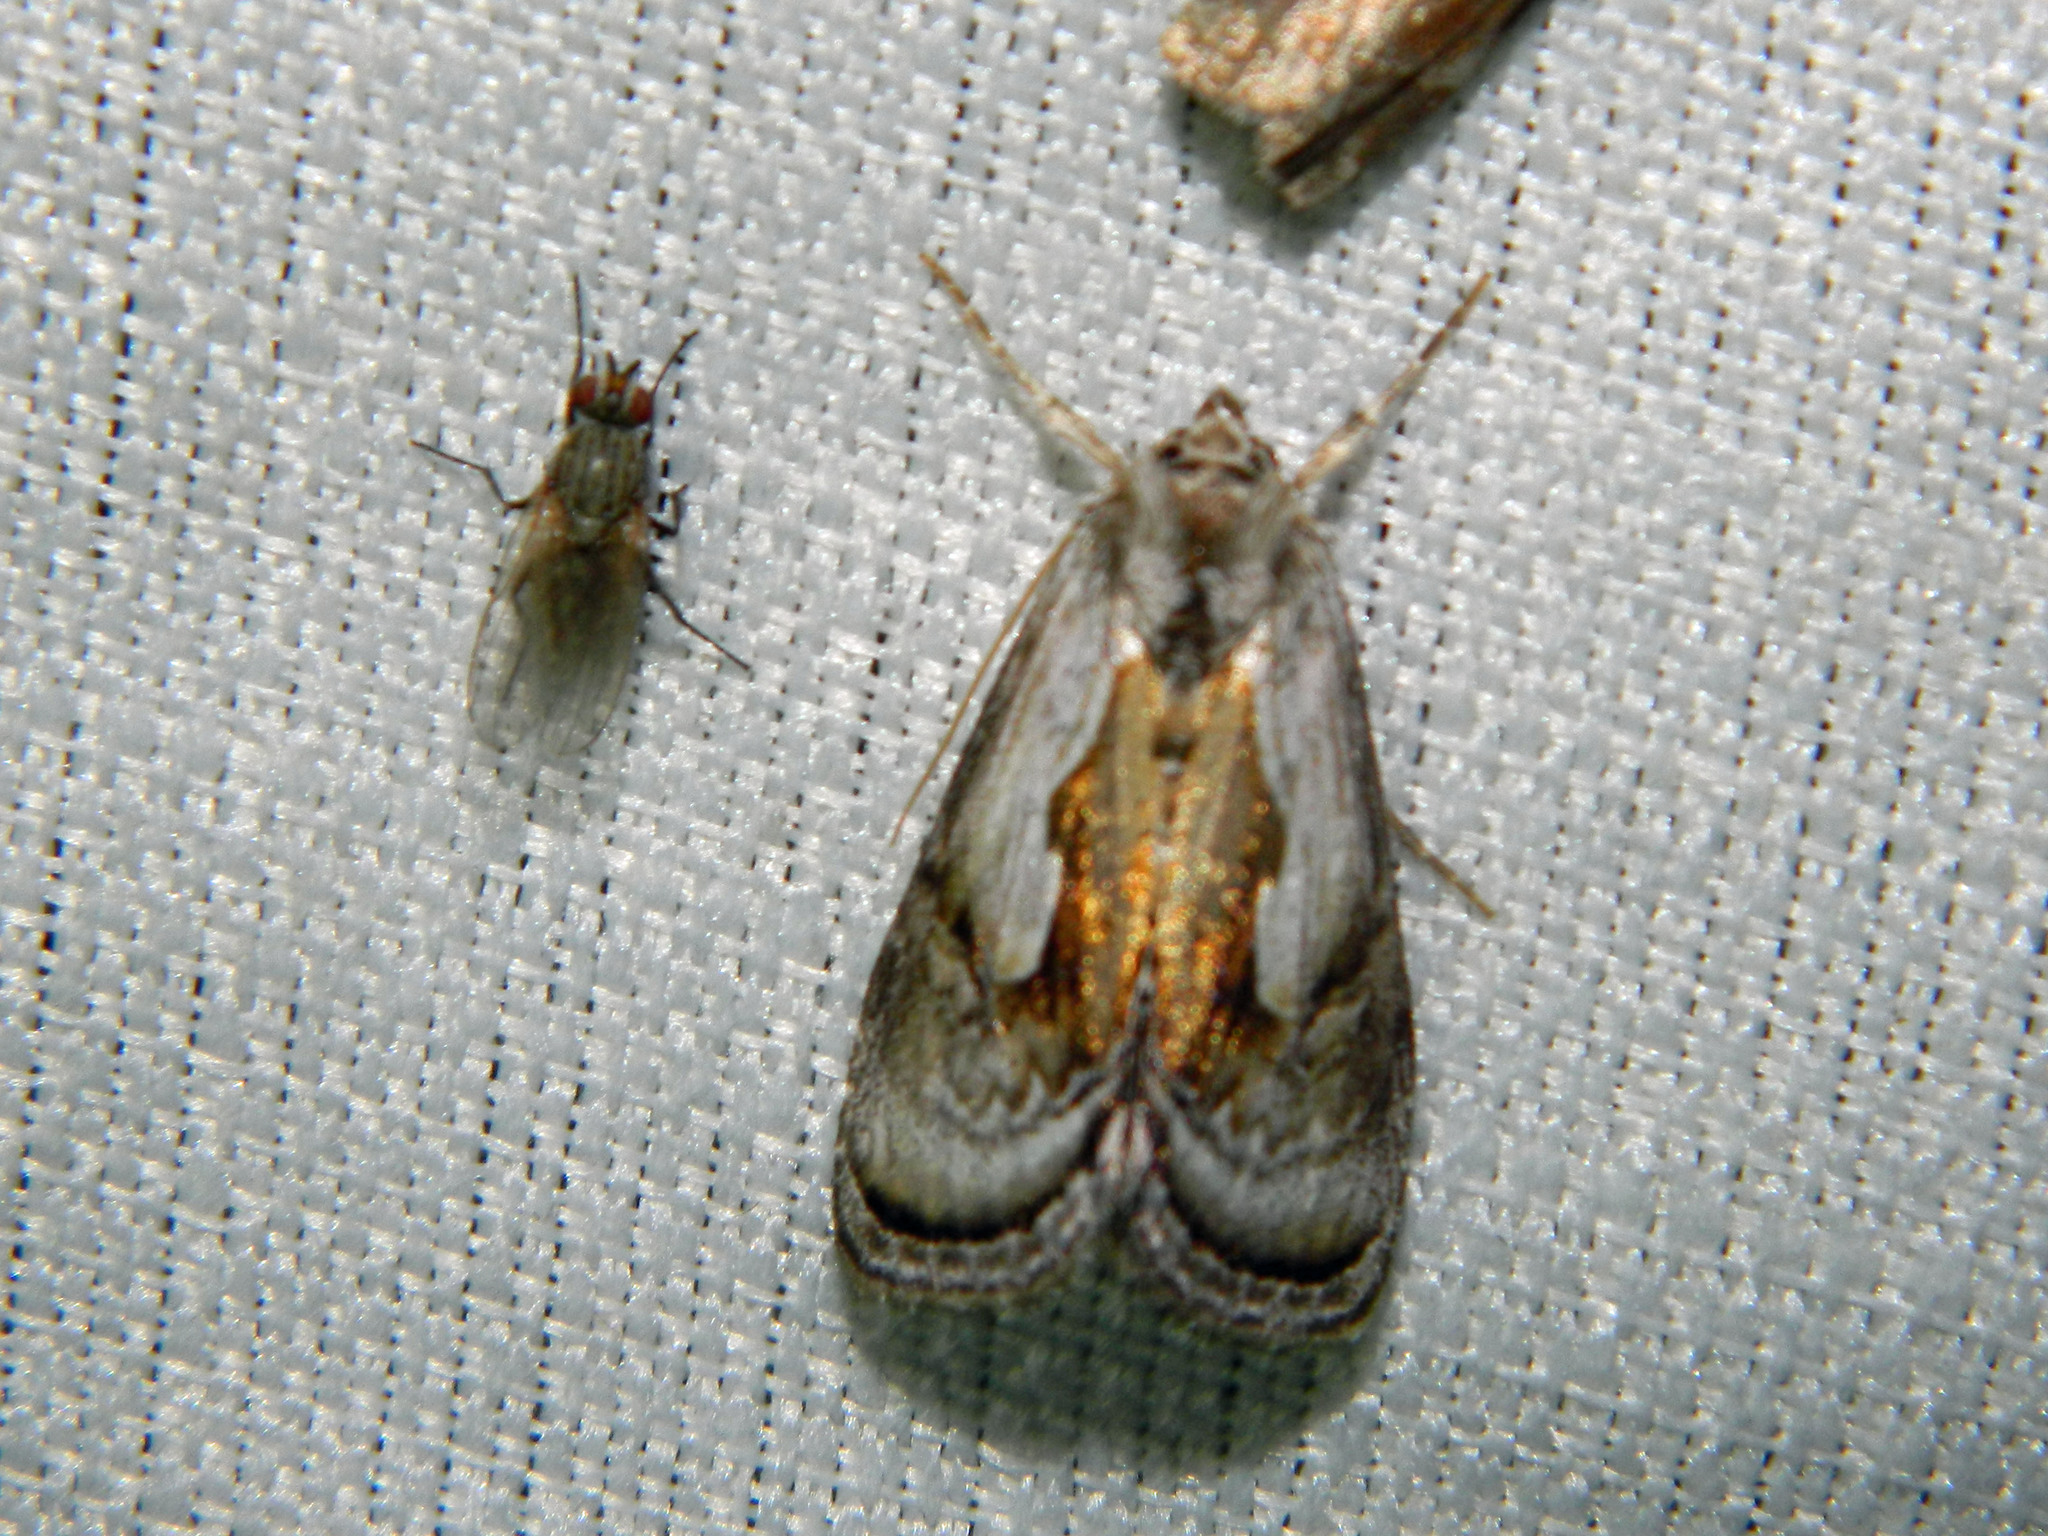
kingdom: Animalia
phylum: Arthropoda
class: Insecta
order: Lepidoptera
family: Noctuidae
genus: Chrysanympha
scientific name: Chrysanympha formosa
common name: Formosa looper moth
